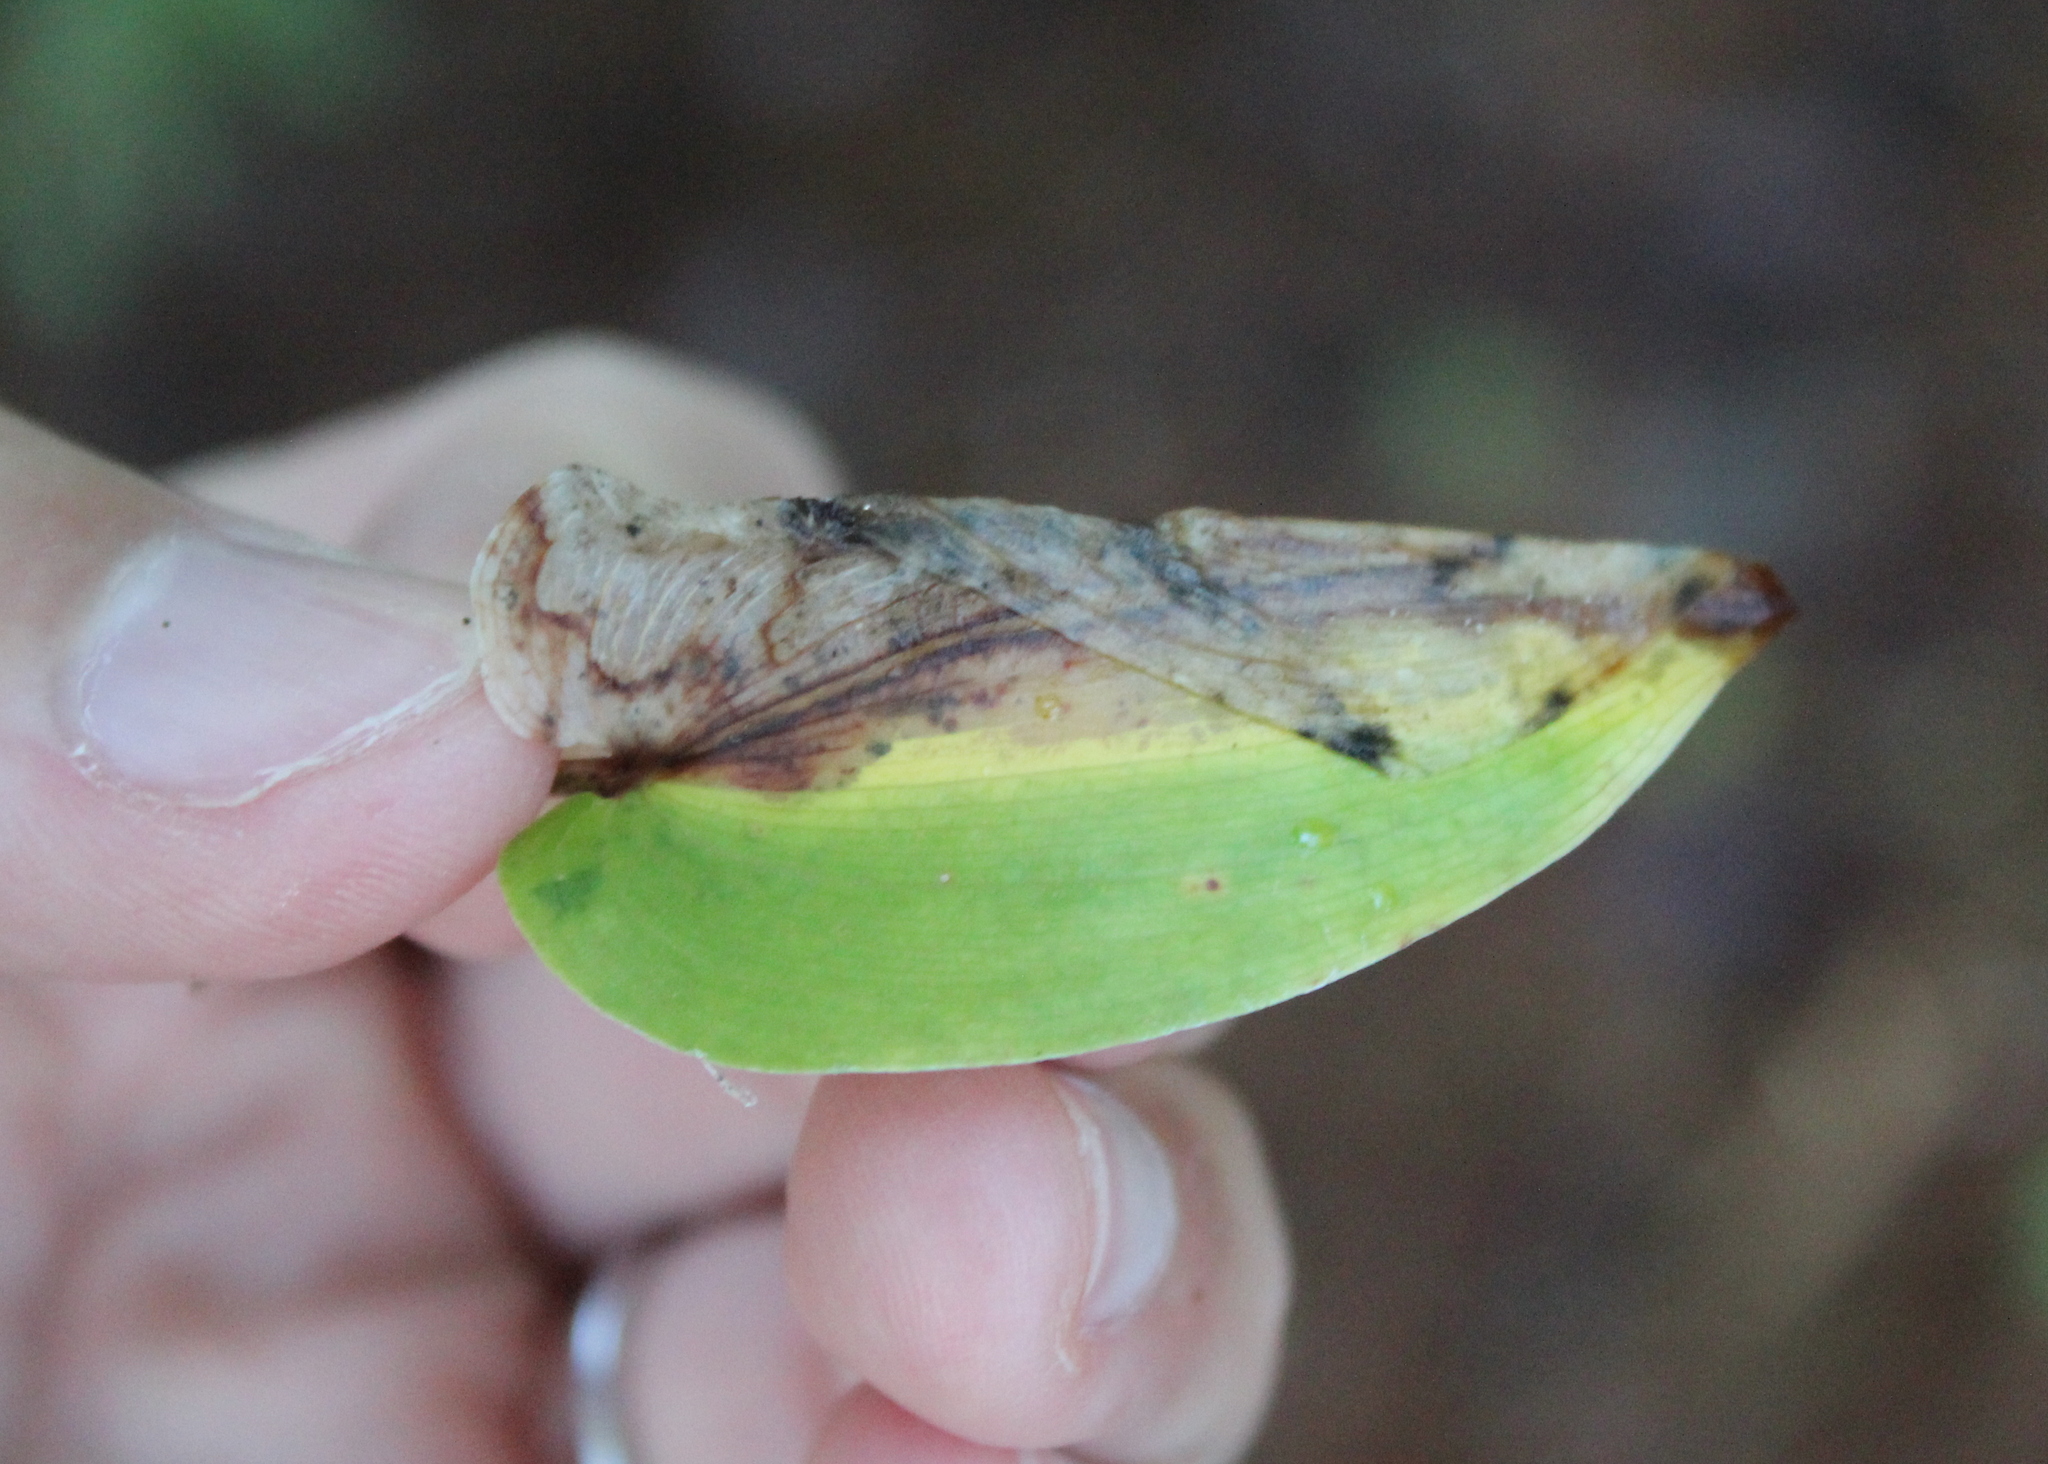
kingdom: Plantae
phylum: Tracheophyta
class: Liliopsida
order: Asparagales
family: Asparagaceae
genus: Maianthemum
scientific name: Maianthemum canadense
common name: False lily-of-the-valley
